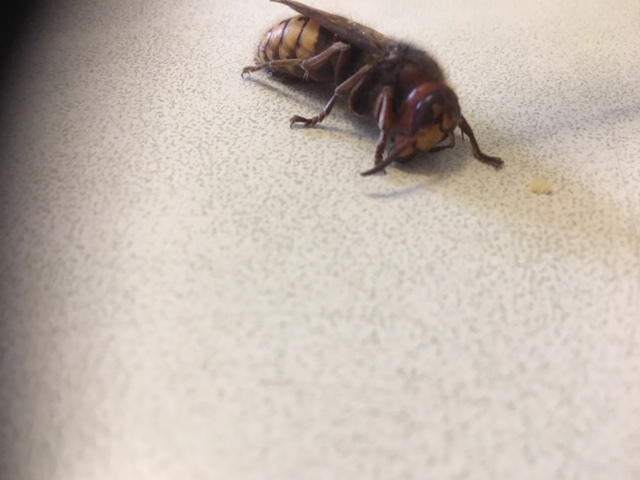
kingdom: Animalia
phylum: Arthropoda
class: Insecta
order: Hymenoptera
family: Vespidae
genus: Vespa
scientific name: Vespa crabro
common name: Hornet
